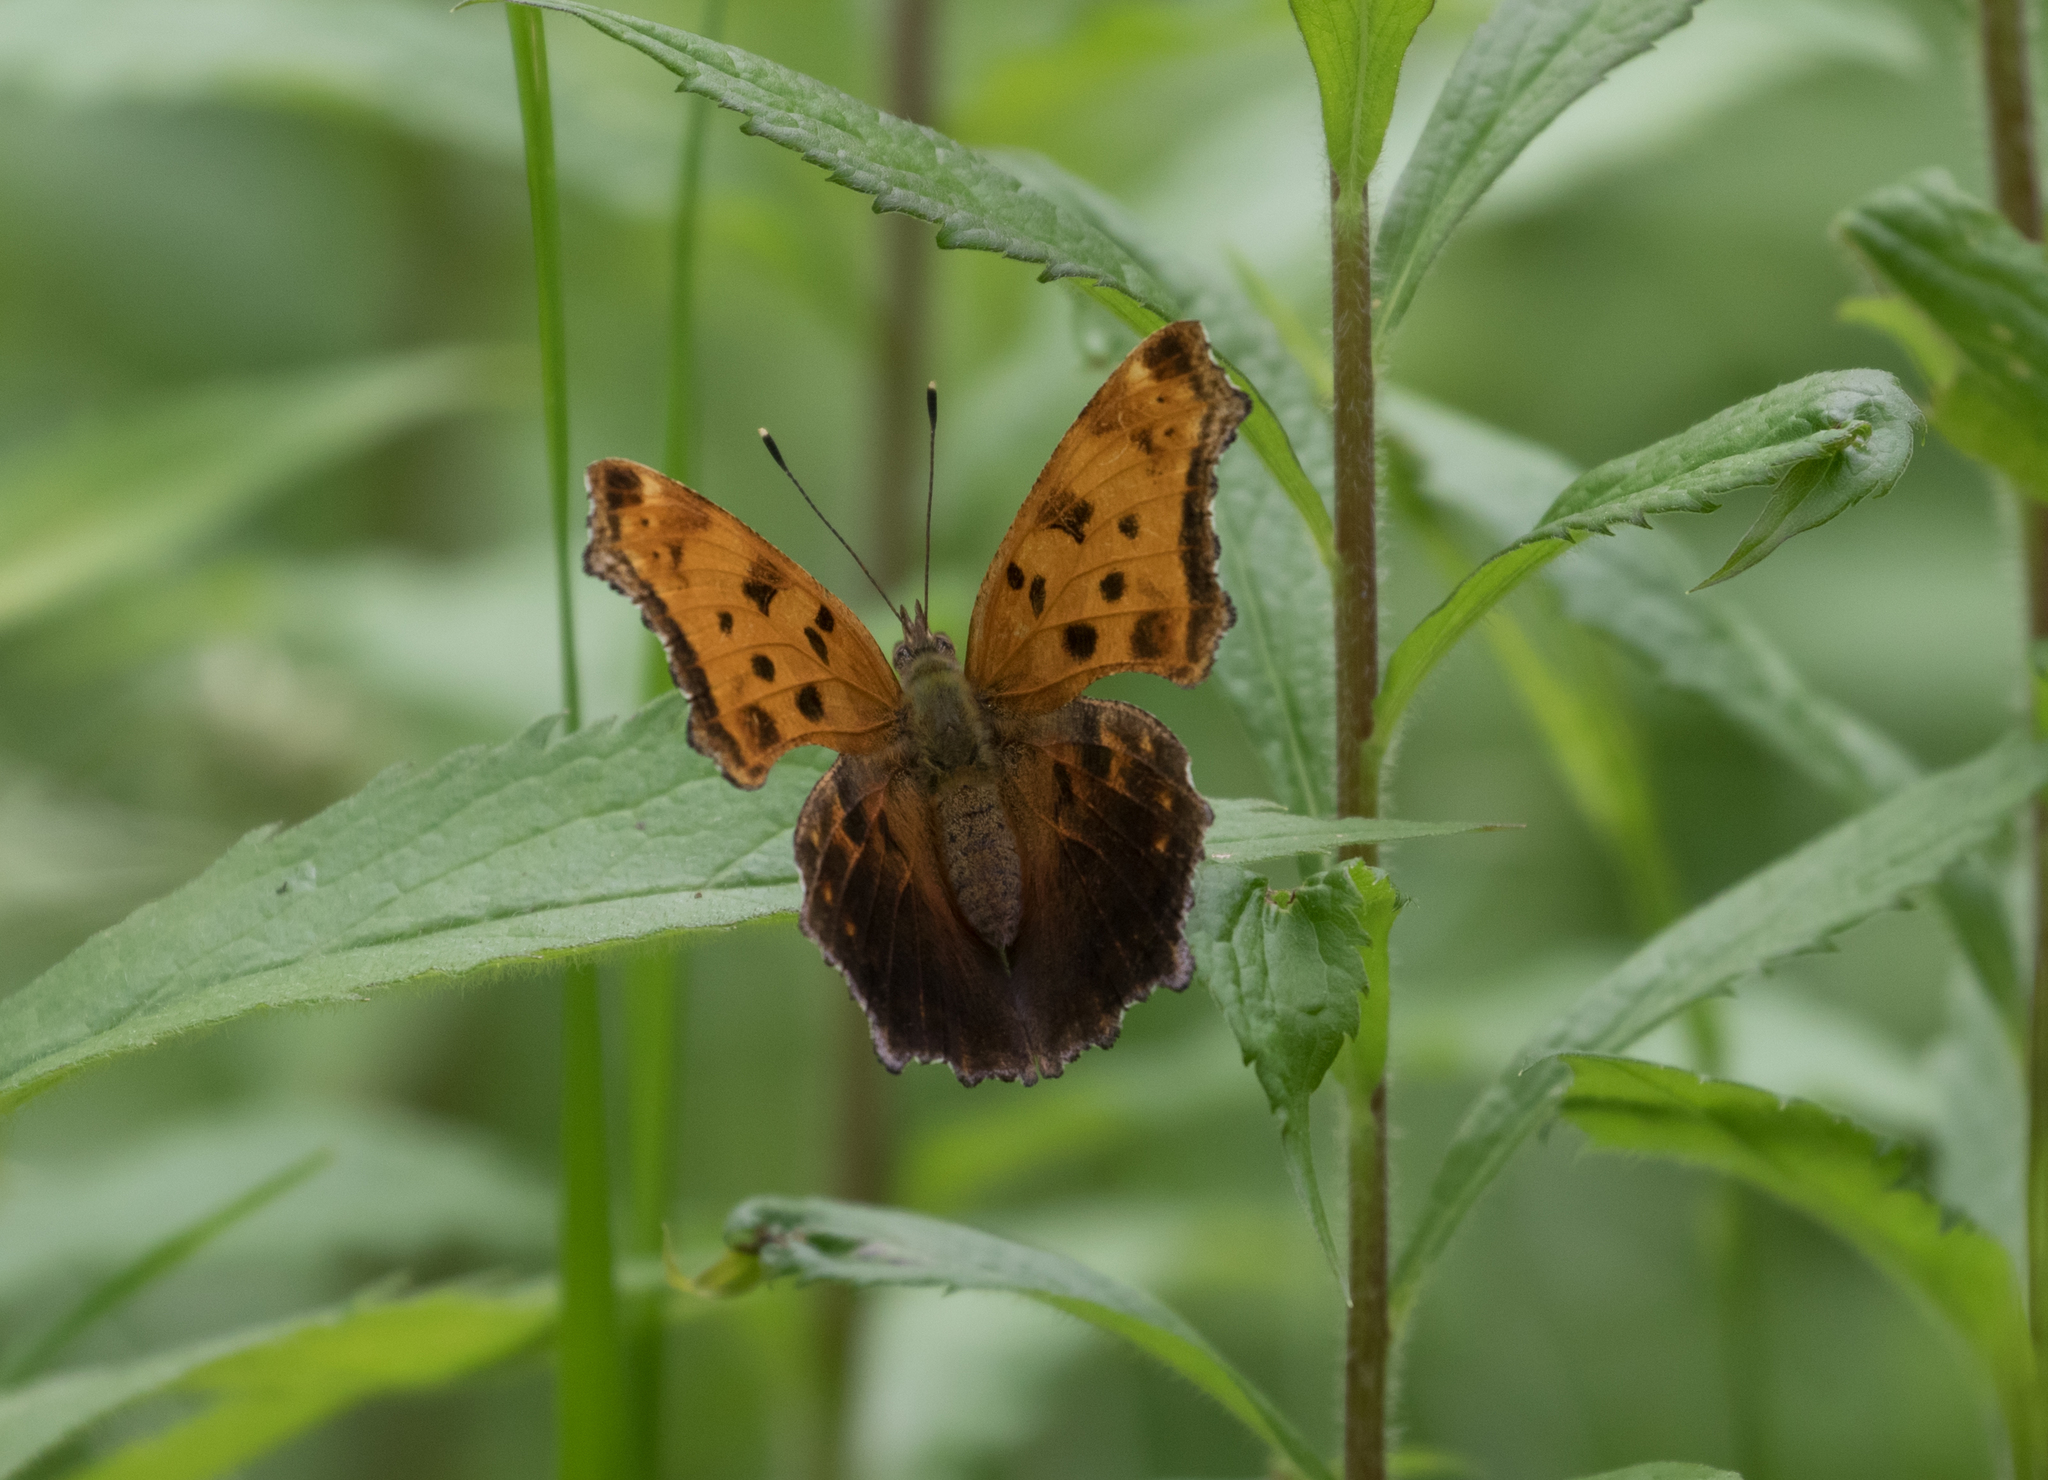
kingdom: Animalia
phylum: Arthropoda
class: Insecta
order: Lepidoptera
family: Nymphalidae
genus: Polygonia
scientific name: Polygonia comma
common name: Eastern comma
